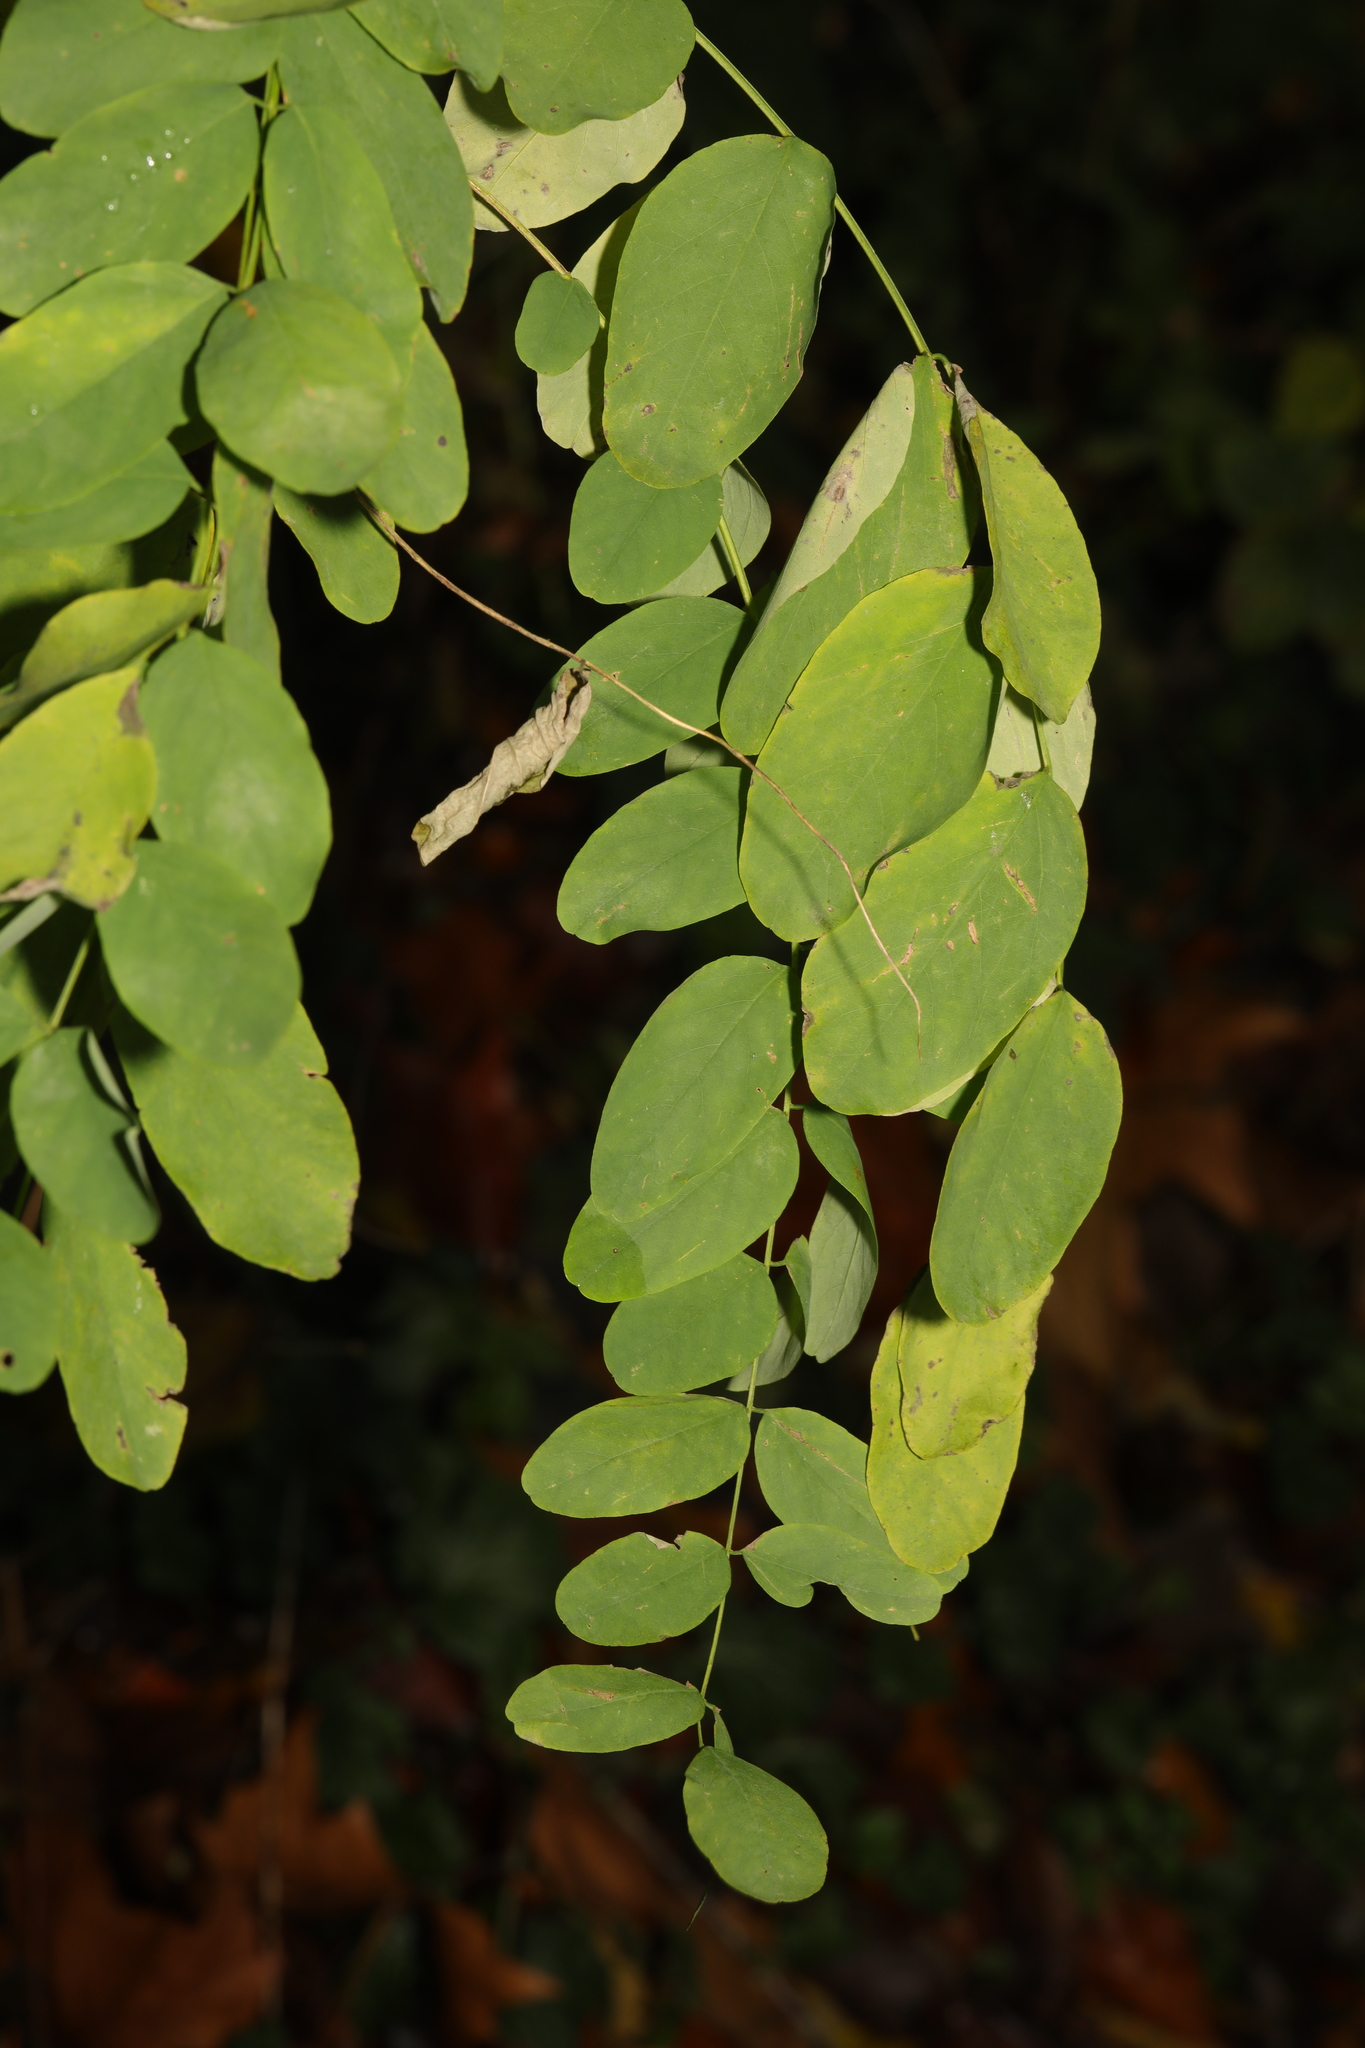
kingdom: Plantae
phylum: Tracheophyta
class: Magnoliopsida
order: Fabales
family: Fabaceae
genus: Robinia
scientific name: Robinia pseudoacacia
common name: Black locust
